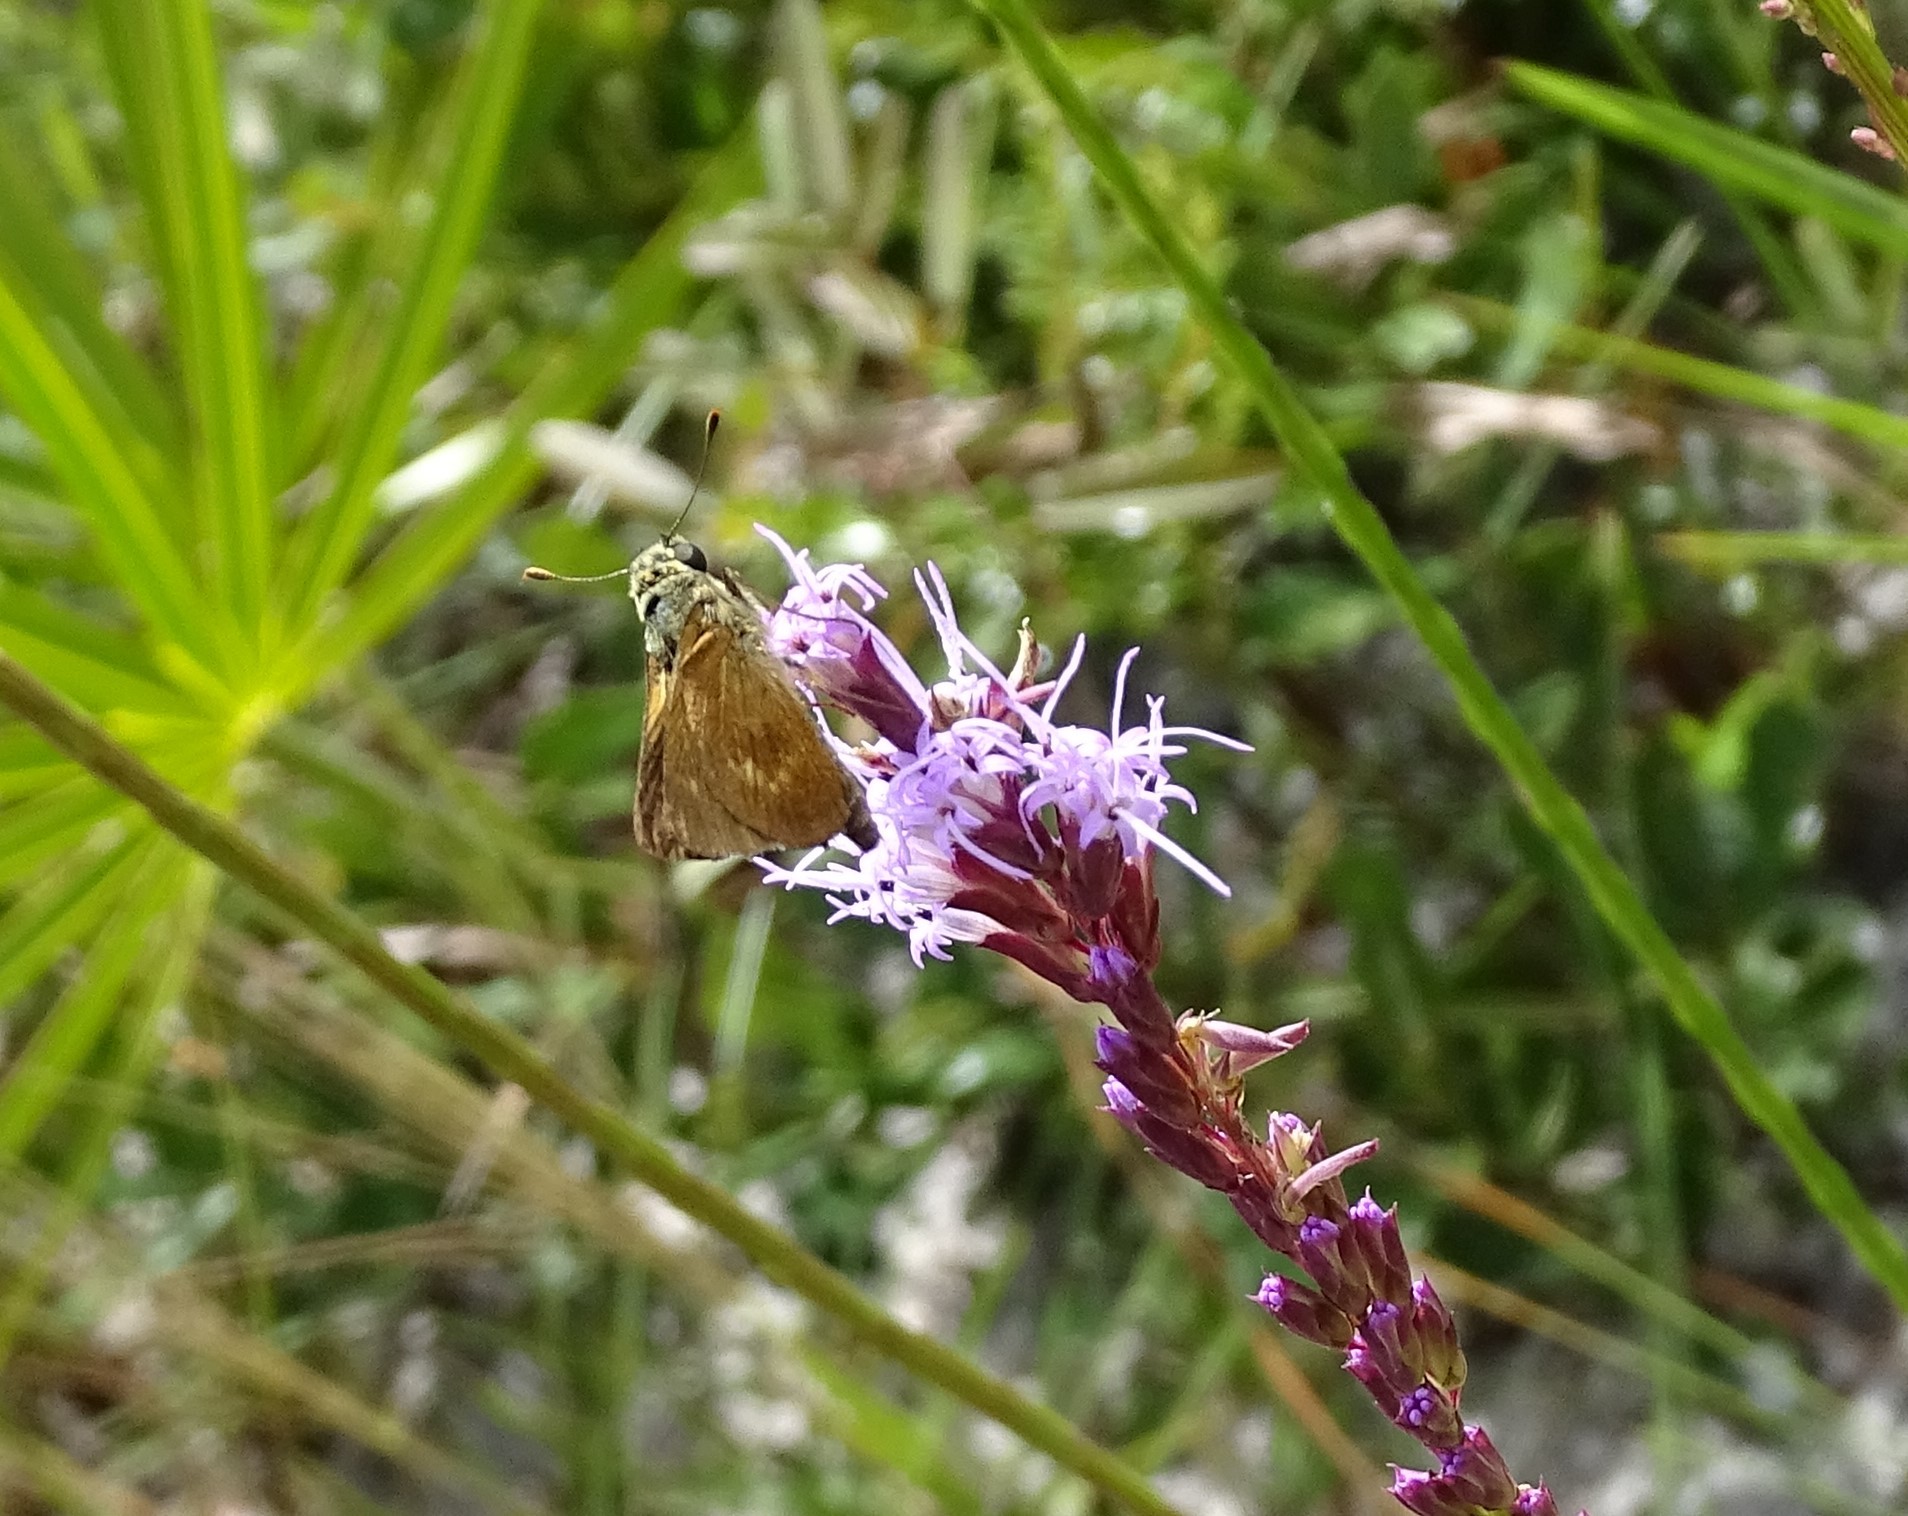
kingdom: Animalia
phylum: Arthropoda
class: Insecta
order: Lepidoptera
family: Hesperiidae
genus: Polites
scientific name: Polites otho
